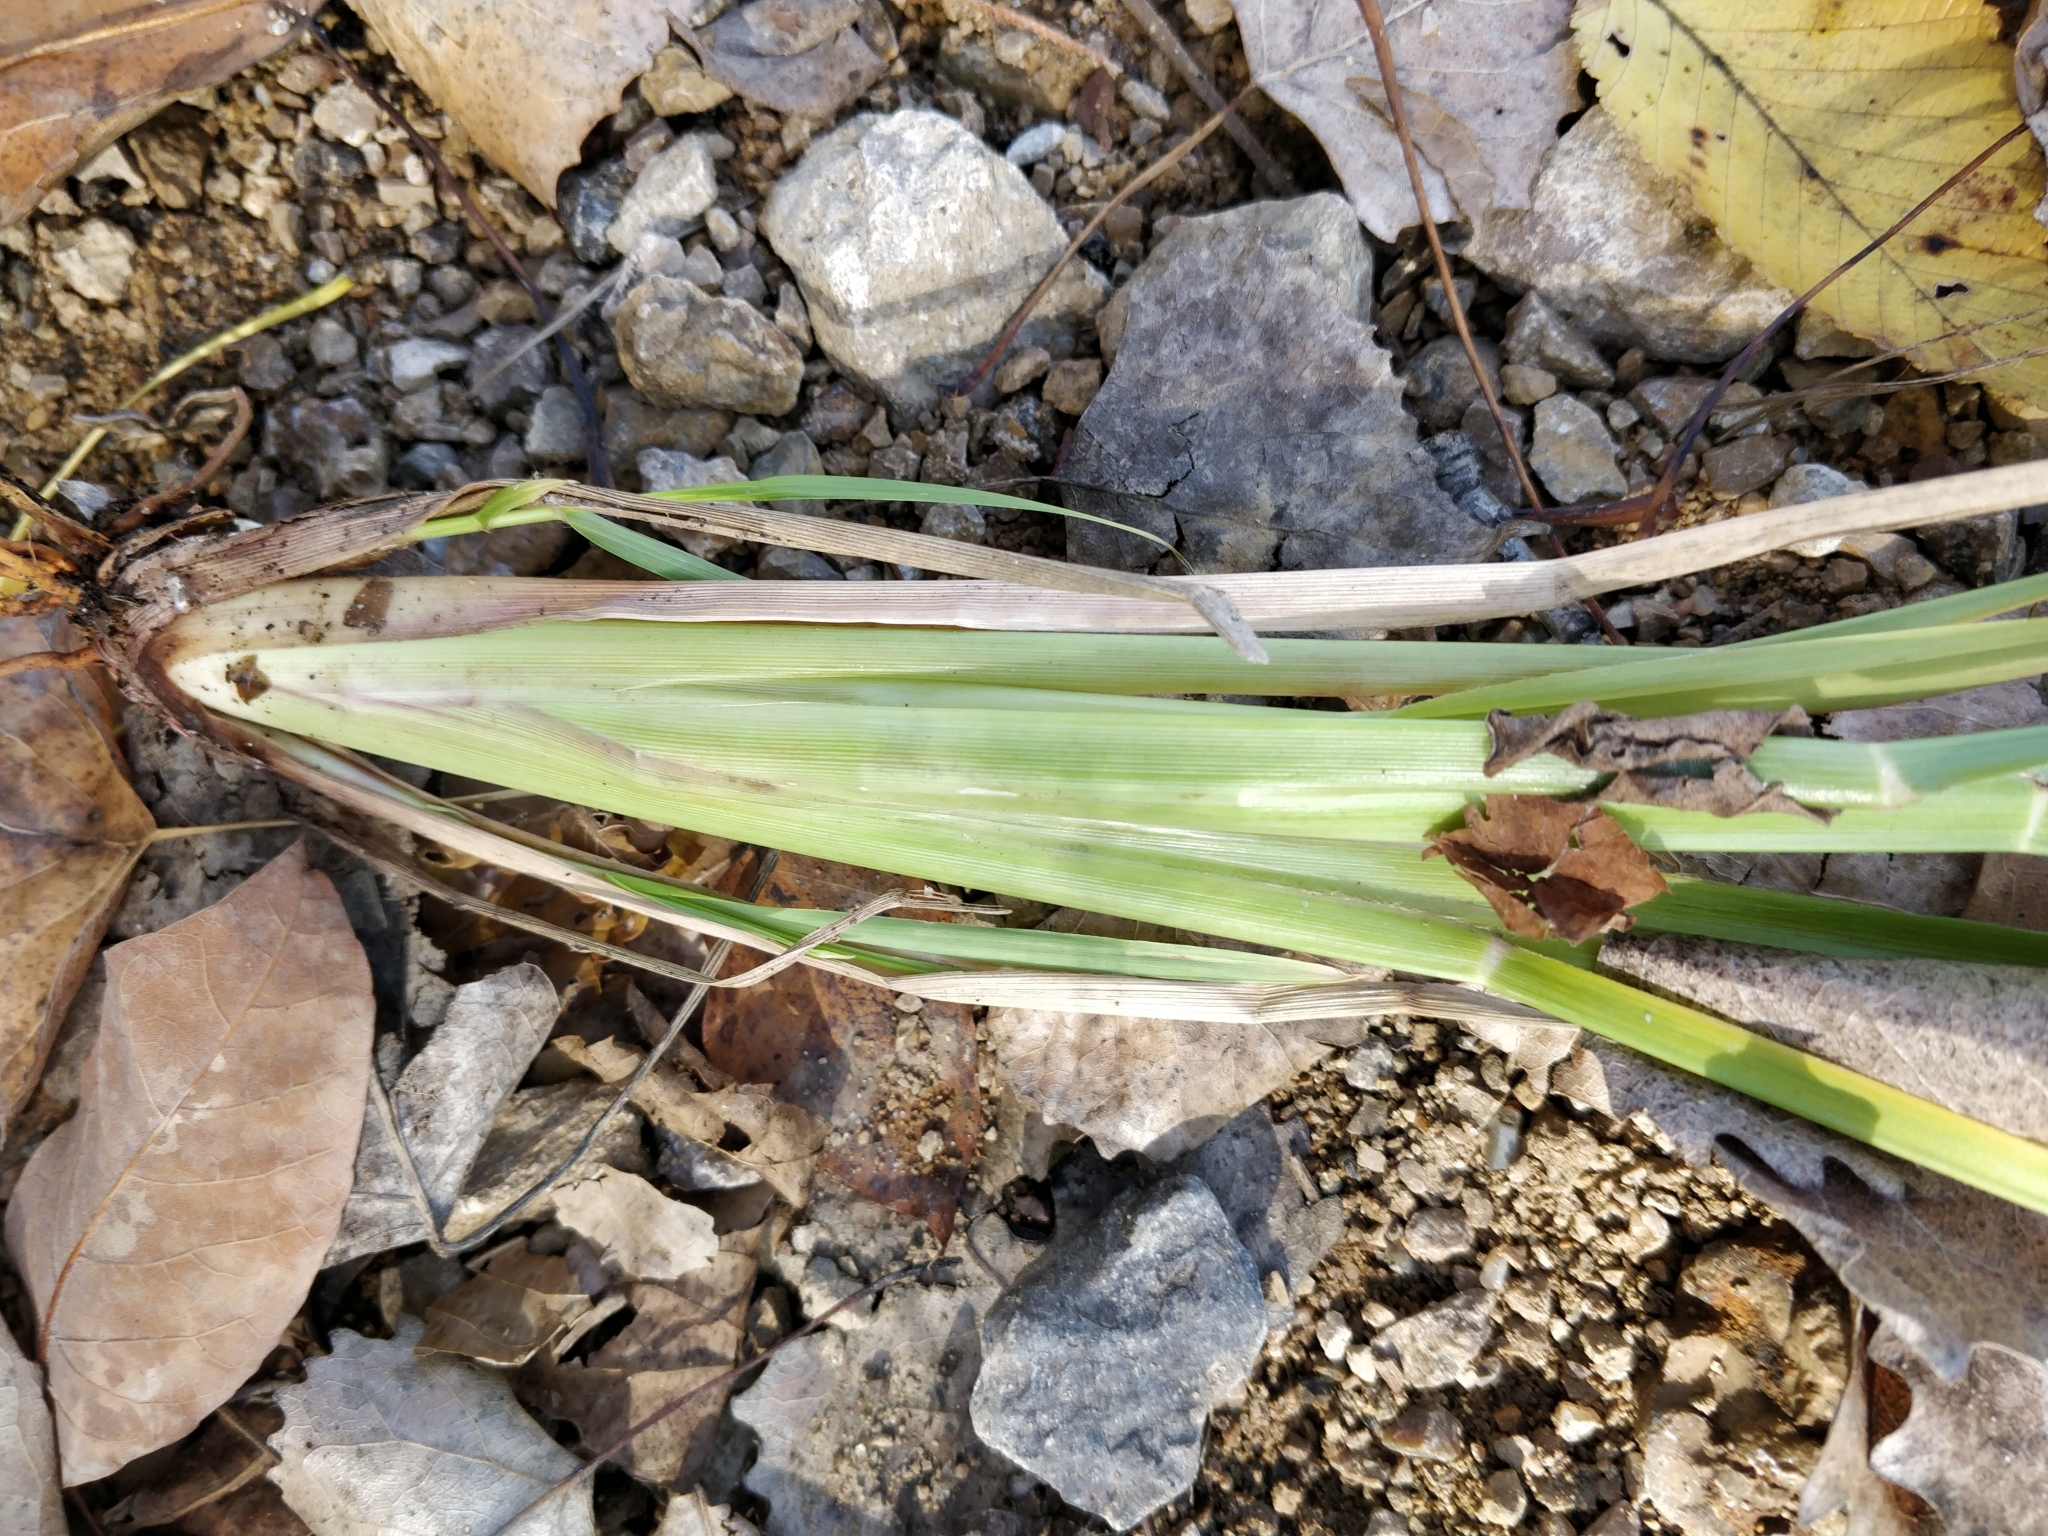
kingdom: Plantae
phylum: Tracheophyta
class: Liliopsida
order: Poales
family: Poaceae
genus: Cenchrus
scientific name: Cenchrus alopecuroides
